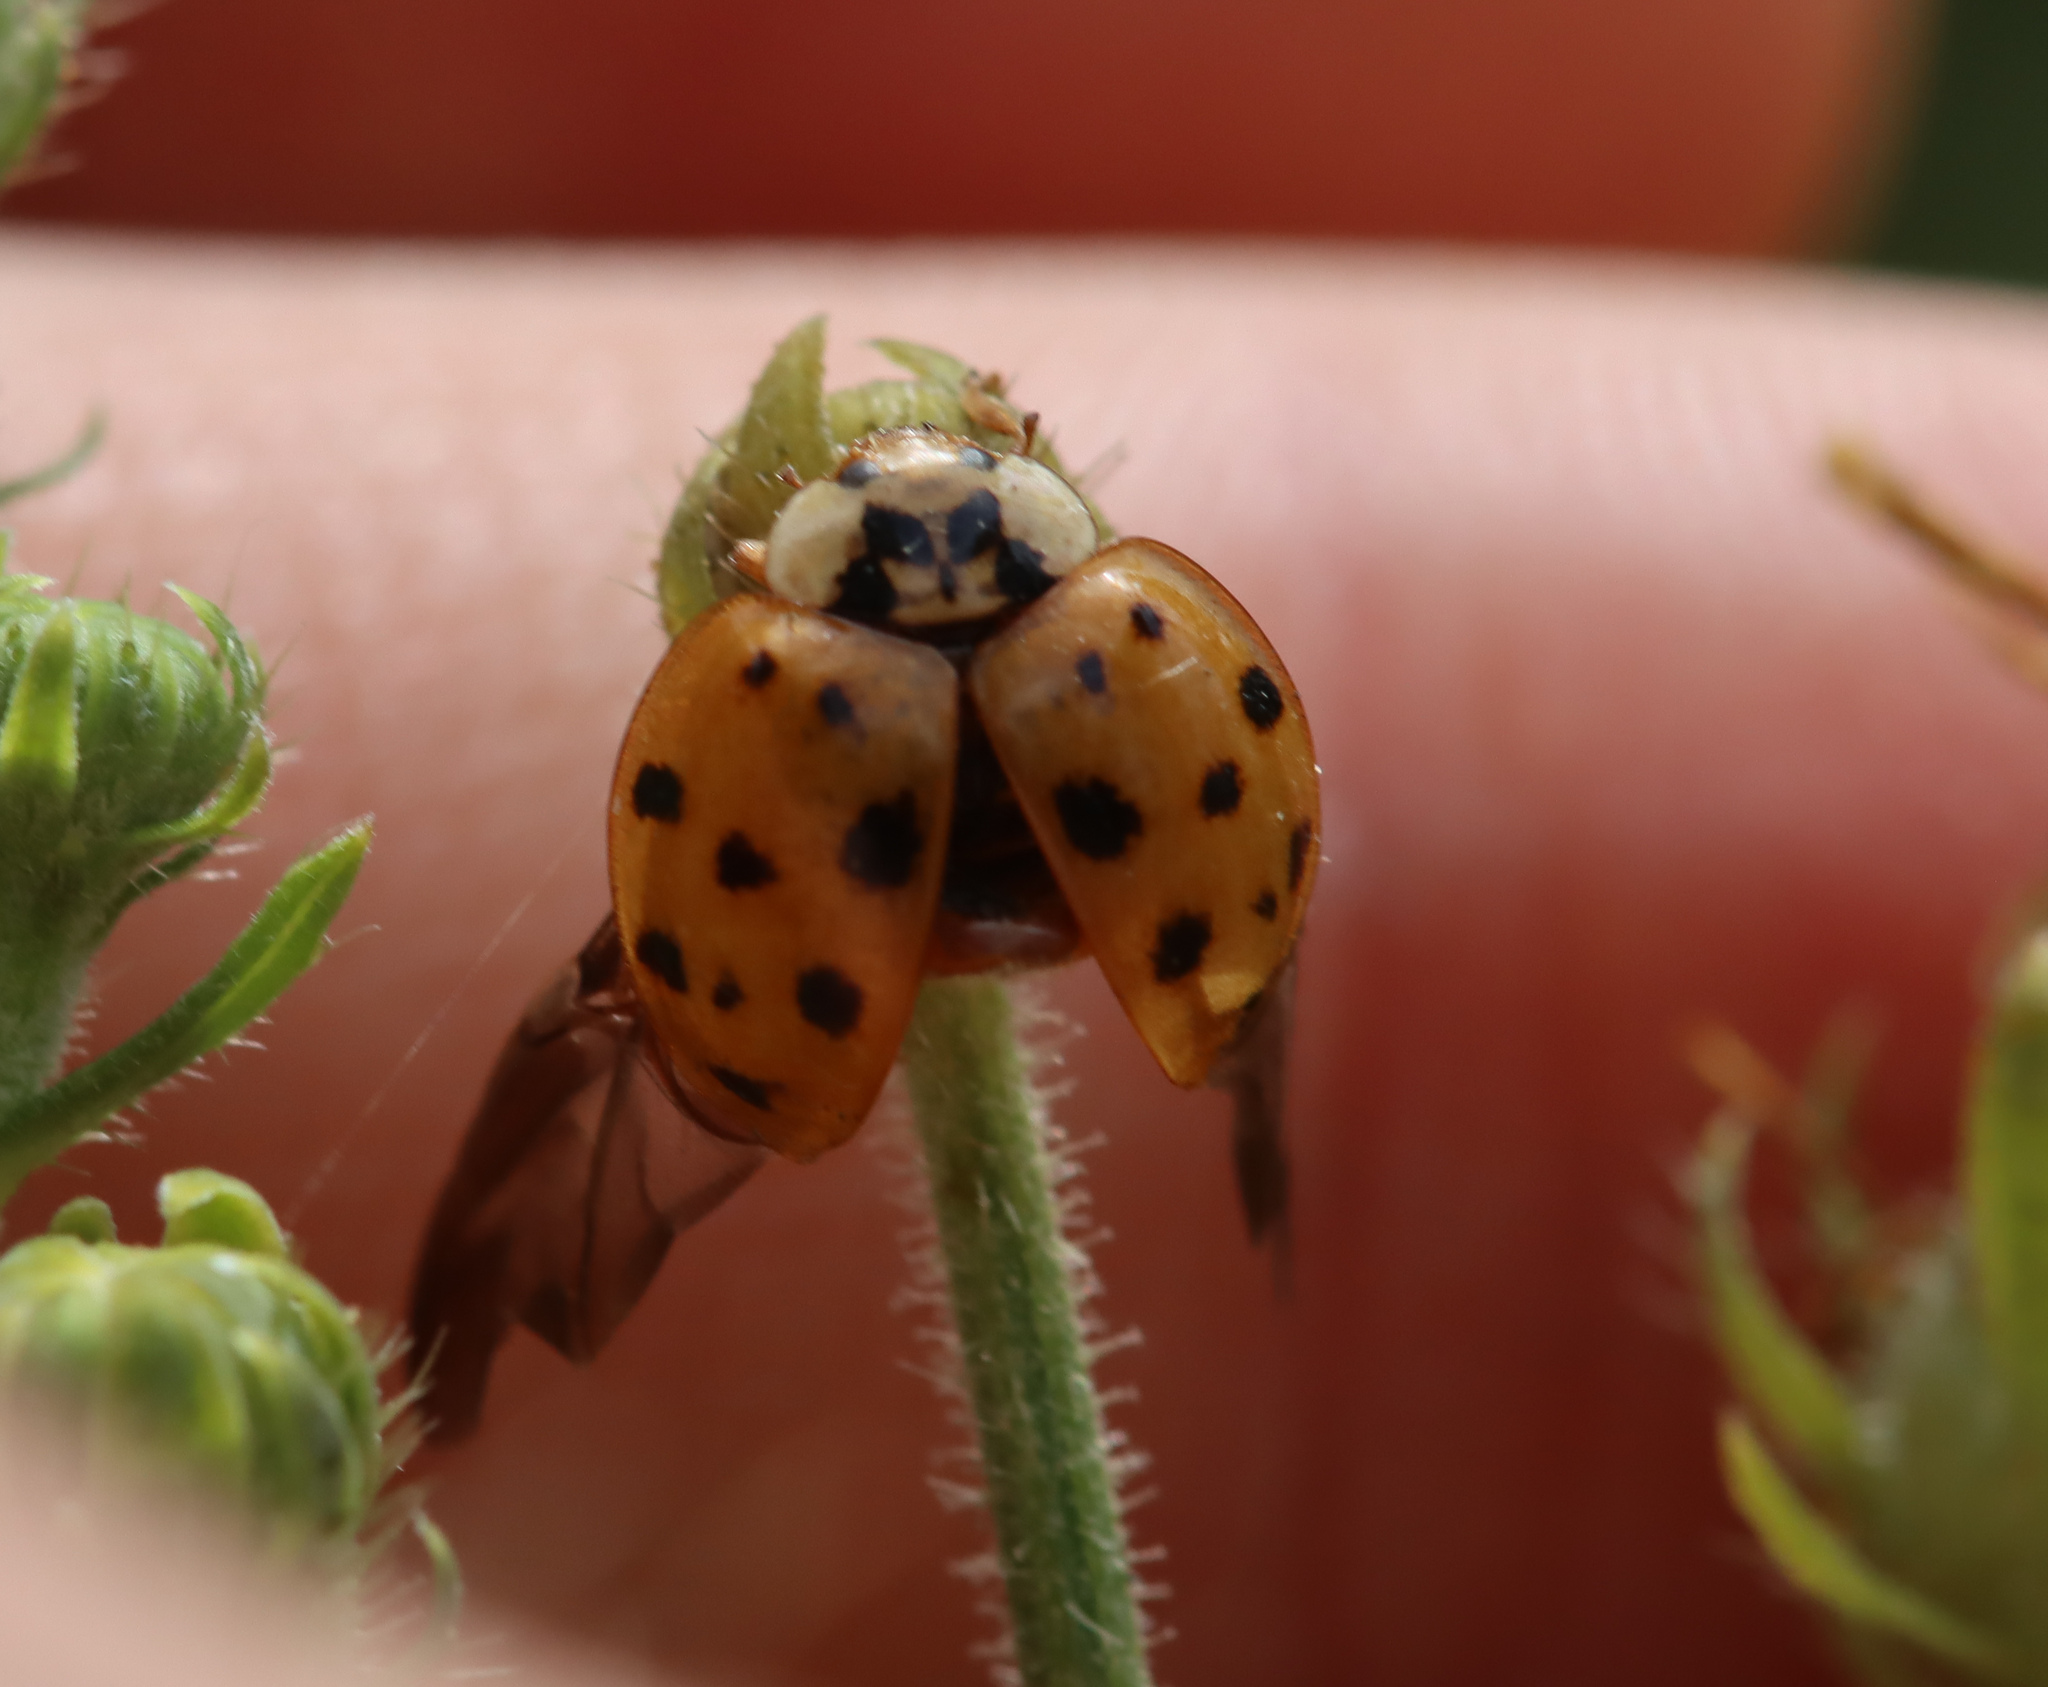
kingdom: Animalia
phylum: Arthropoda
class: Insecta
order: Coleoptera
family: Coccinellidae
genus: Harmonia
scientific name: Harmonia axyridis
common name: Harlequin ladybird
